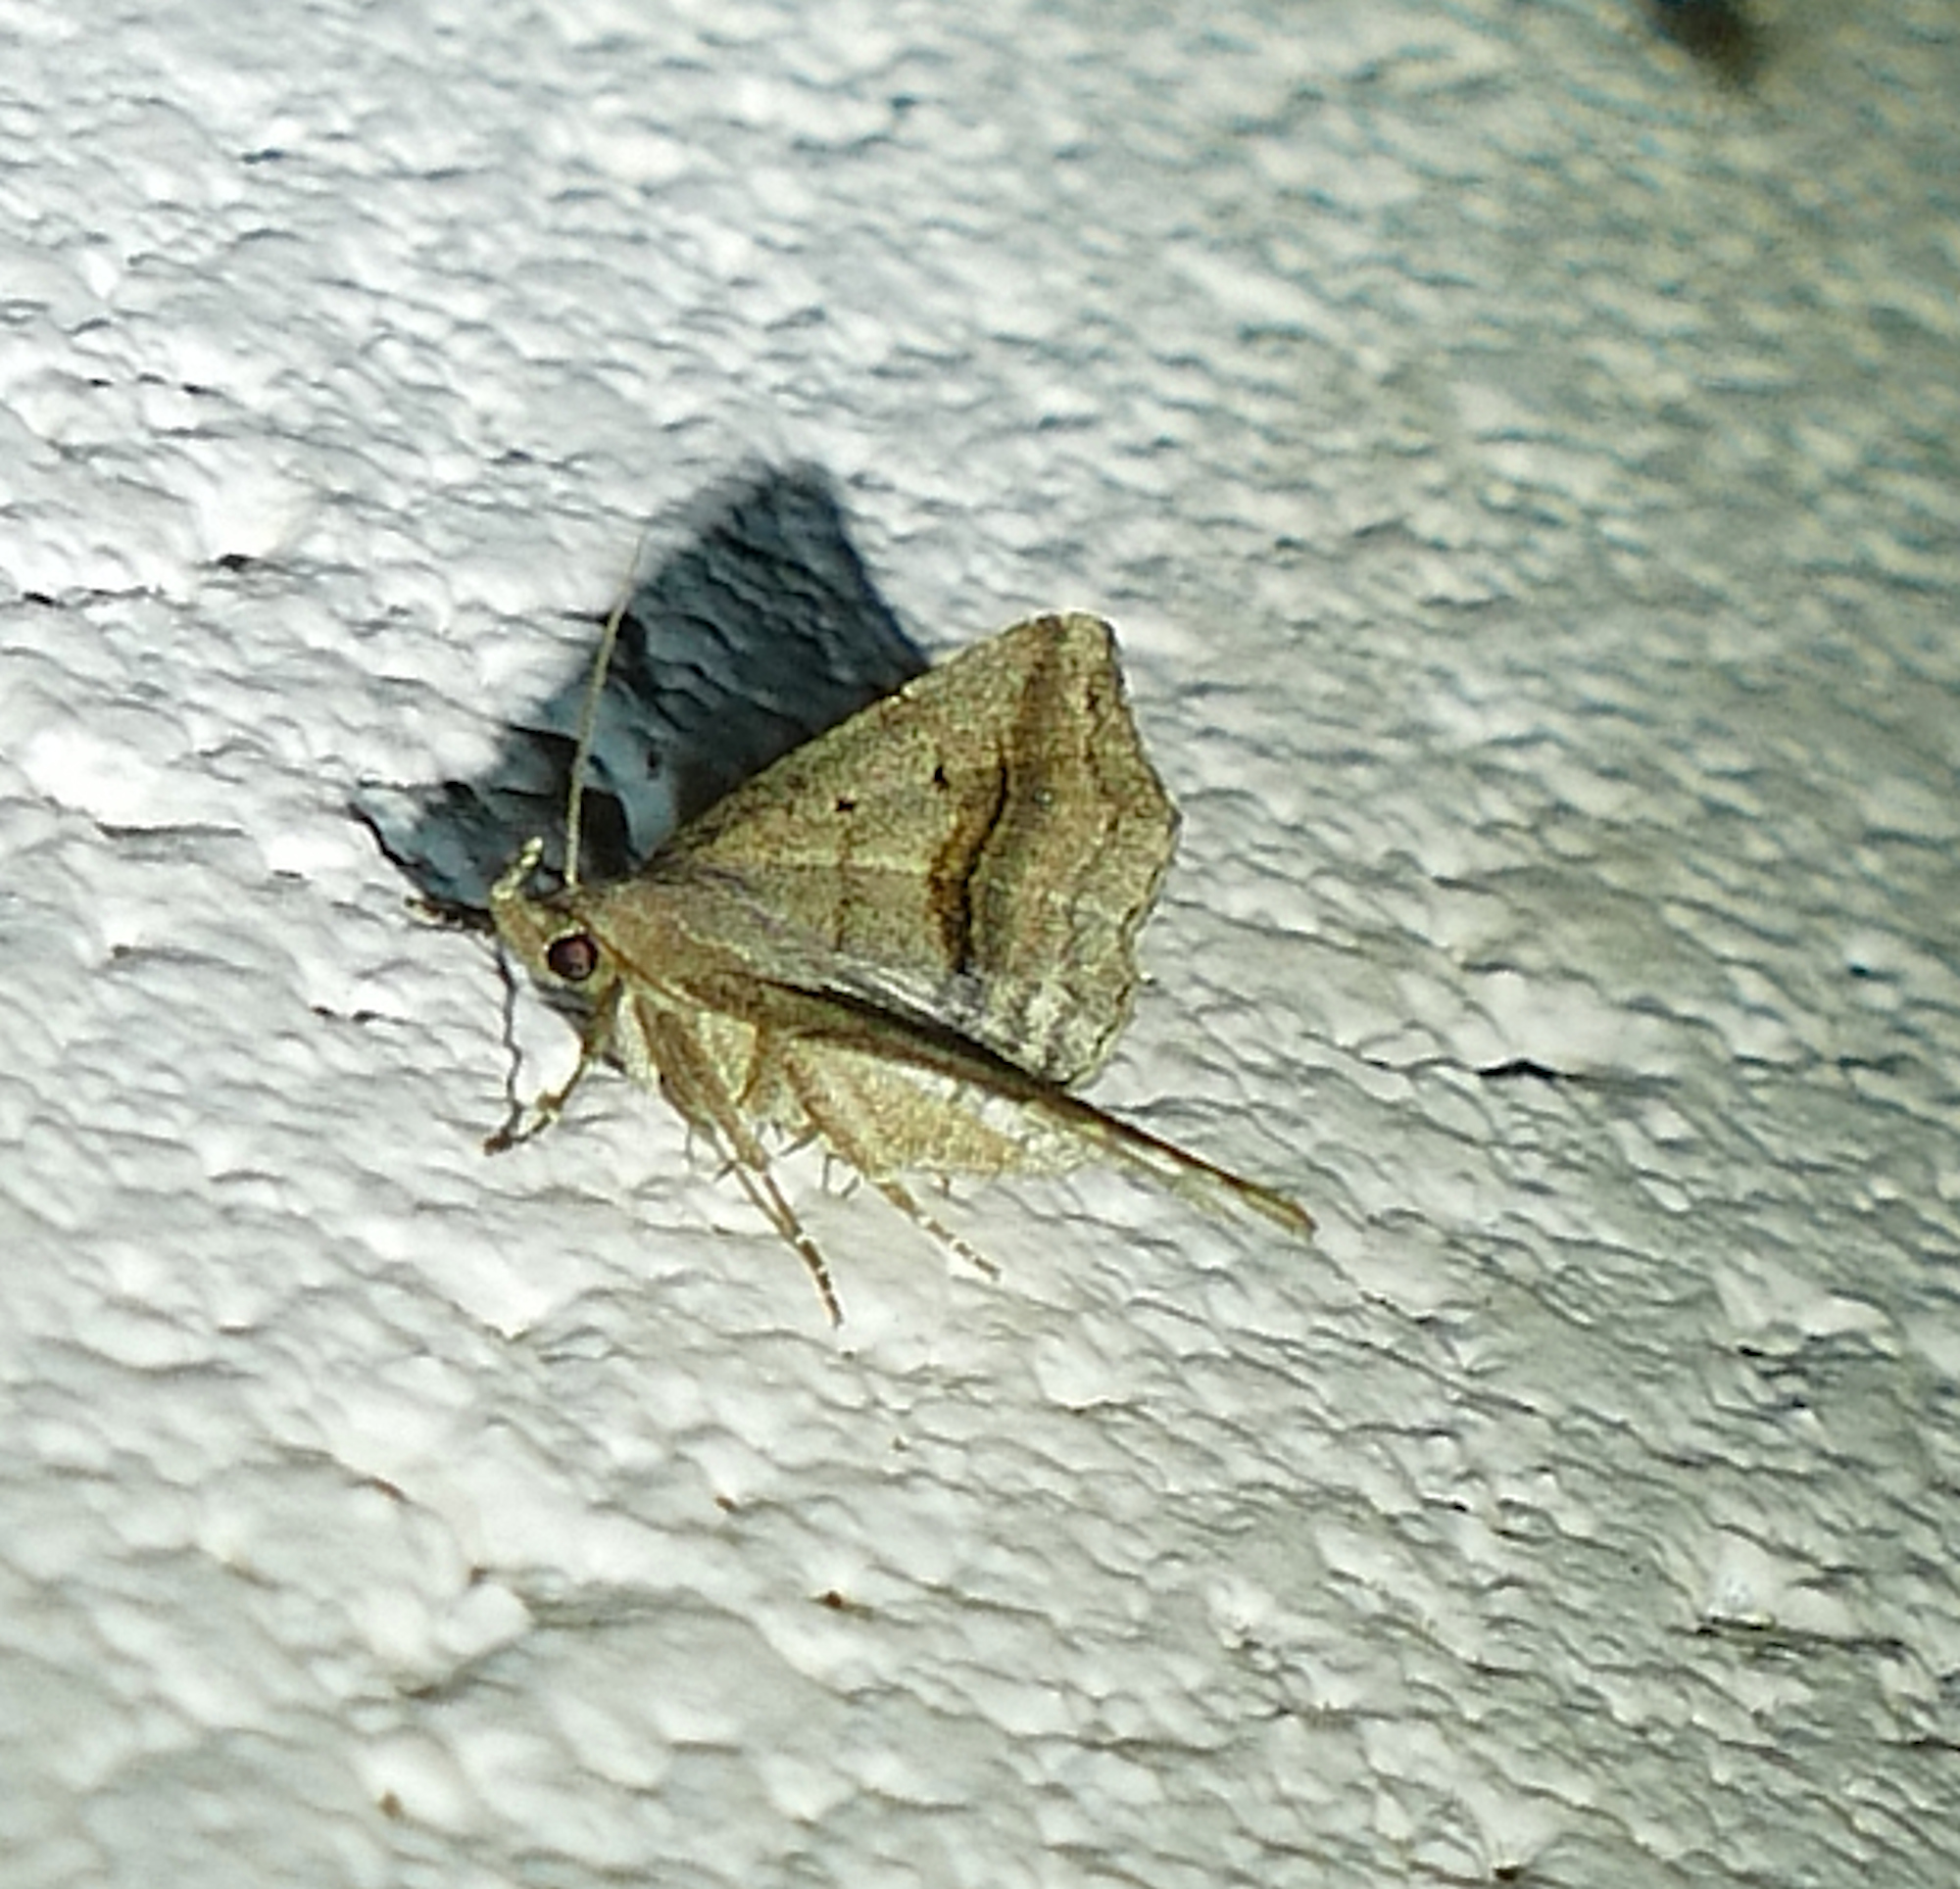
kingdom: Animalia
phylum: Arthropoda
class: Insecta
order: Lepidoptera
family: Erebidae
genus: Spargaloma
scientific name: Spargaloma perditalis
